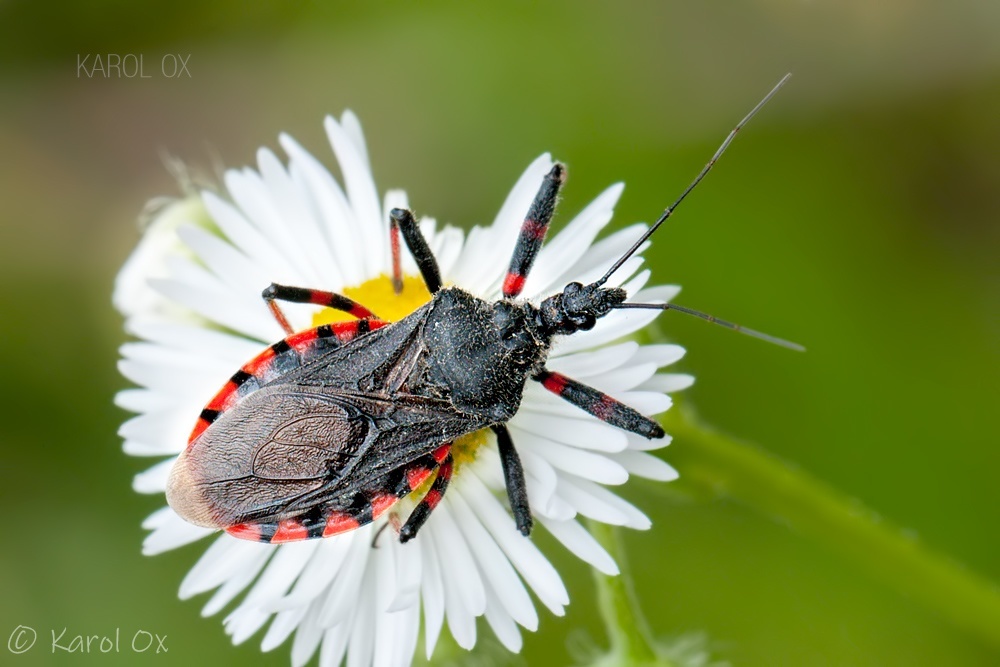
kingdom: Animalia
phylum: Arthropoda
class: Insecta
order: Hemiptera
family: Reduviidae
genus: Rhynocoris
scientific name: Rhynocoris annulatus
